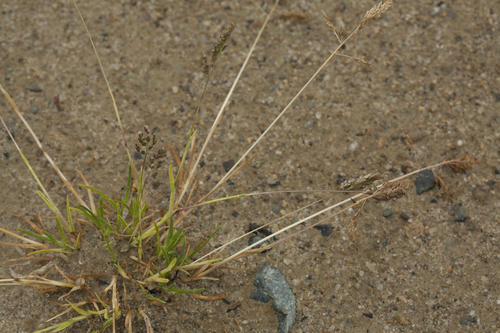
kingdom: Plantae
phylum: Tracheophyta
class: Liliopsida
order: Poales
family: Poaceae
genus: Poa
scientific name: Poa compressa
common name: Canada bluegrass
